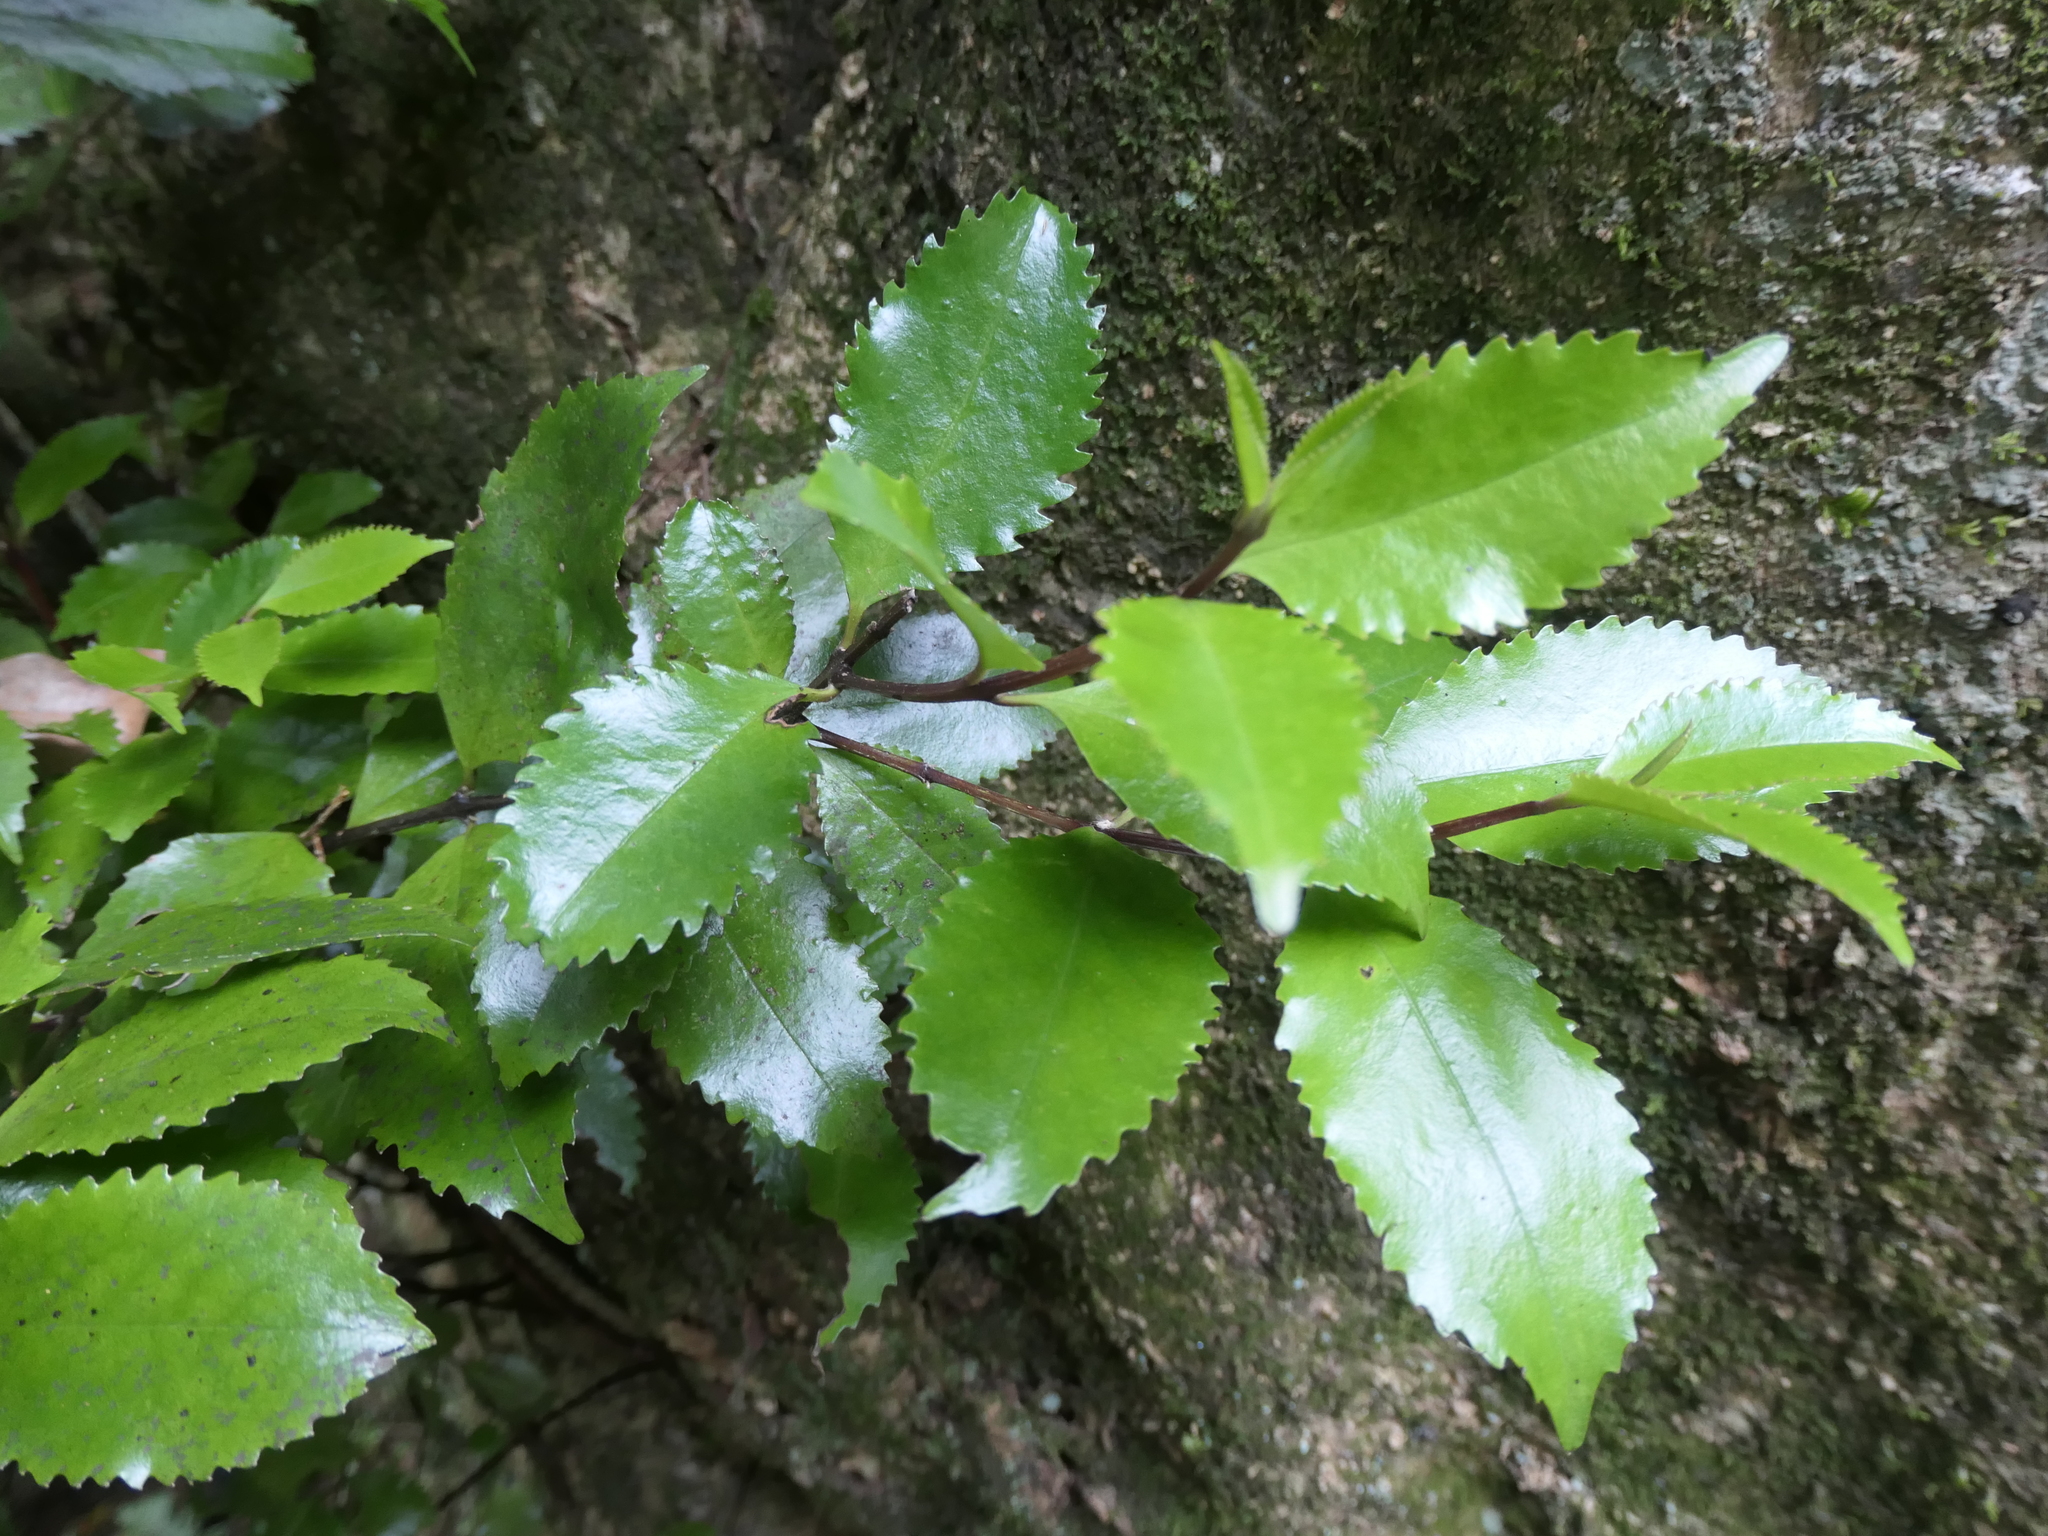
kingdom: Plantae
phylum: Tracheophyta
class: Magnoliopsida
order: Laurales
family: Atherospermataceae
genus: Laurelia
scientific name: Laurelia novae-zelandiae
